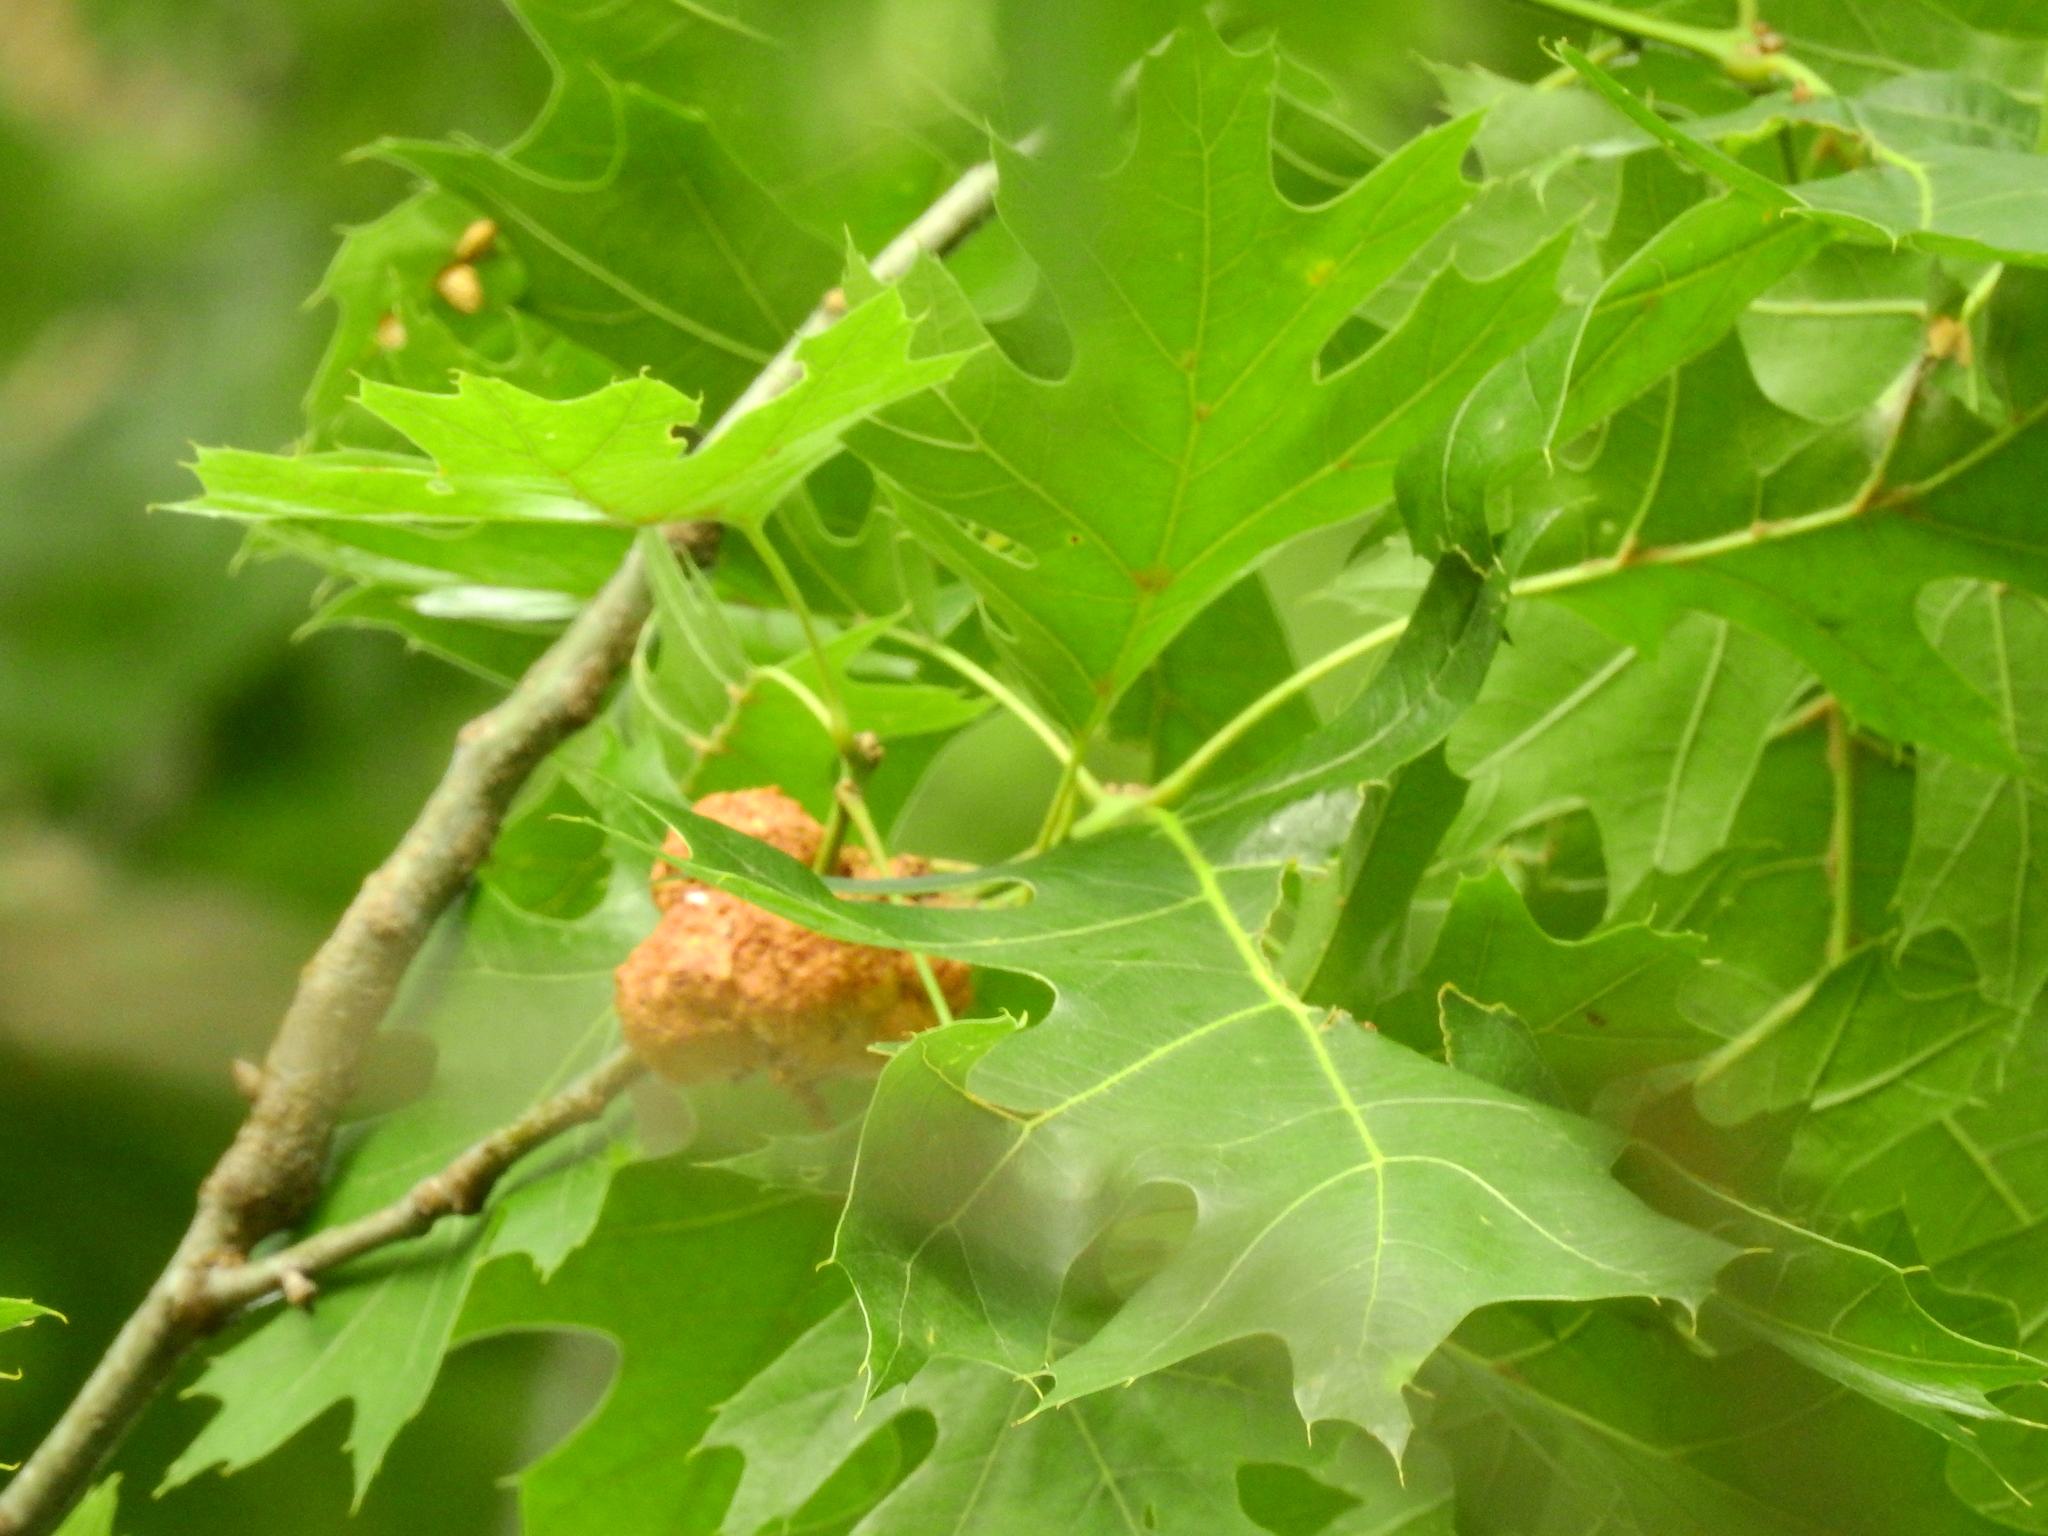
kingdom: Animalia
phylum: Arthropoda
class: Insecta
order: Hymenoptera
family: Cynipidae
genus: Callirhytis
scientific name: Callirhytis
